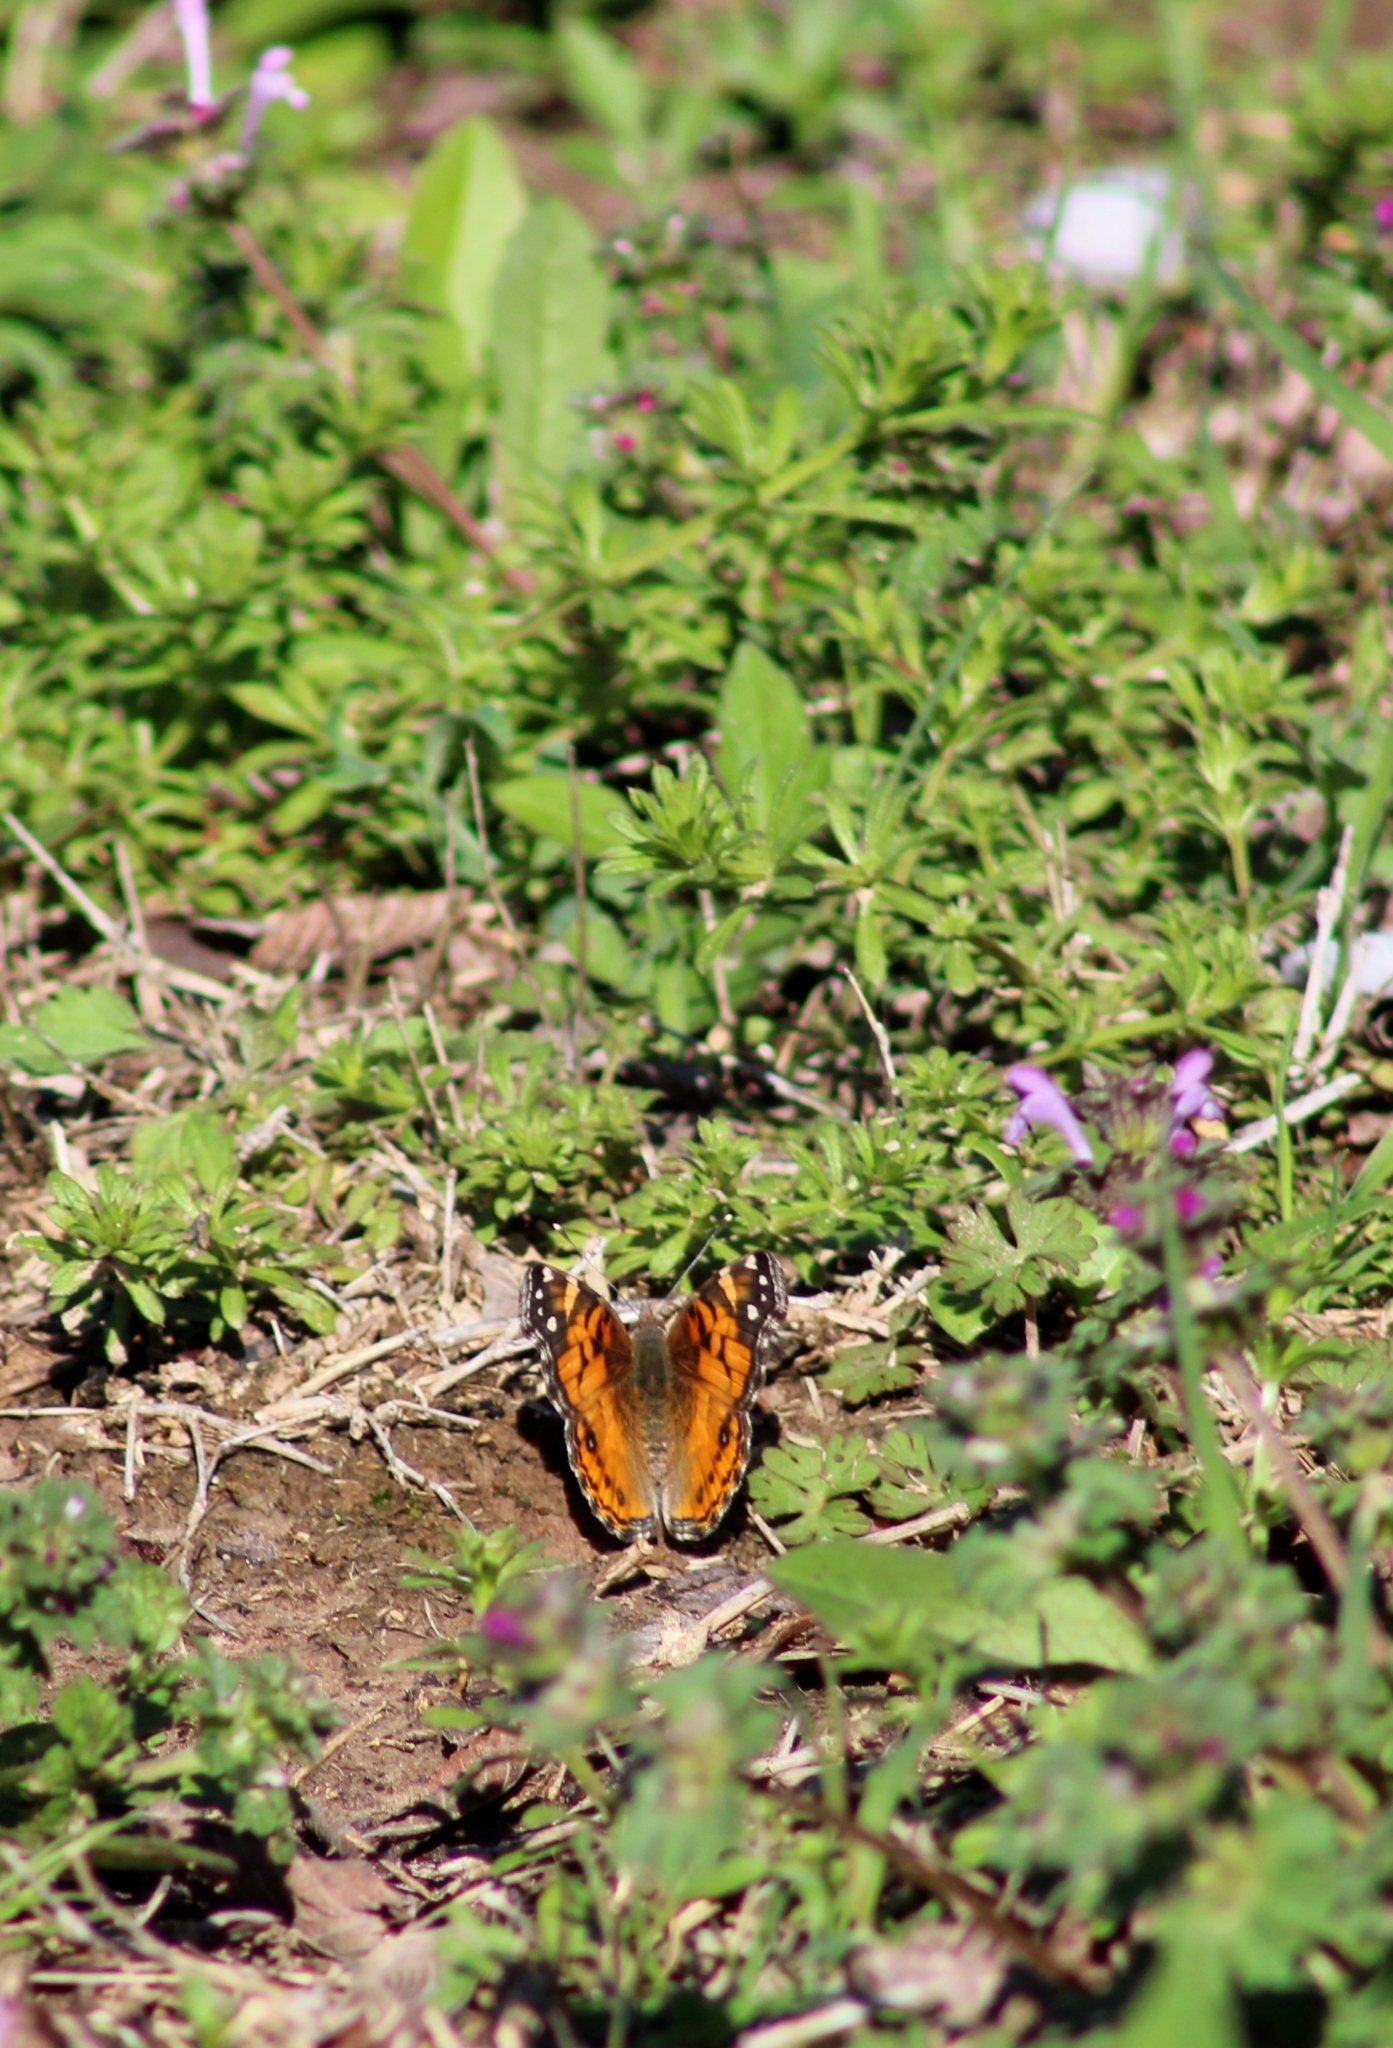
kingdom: Animalia
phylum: Arthropoda
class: Insecta
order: Lepidoptera
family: Nymphalidae
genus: Vanessa
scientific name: Vanessa virginiensis
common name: American lady
